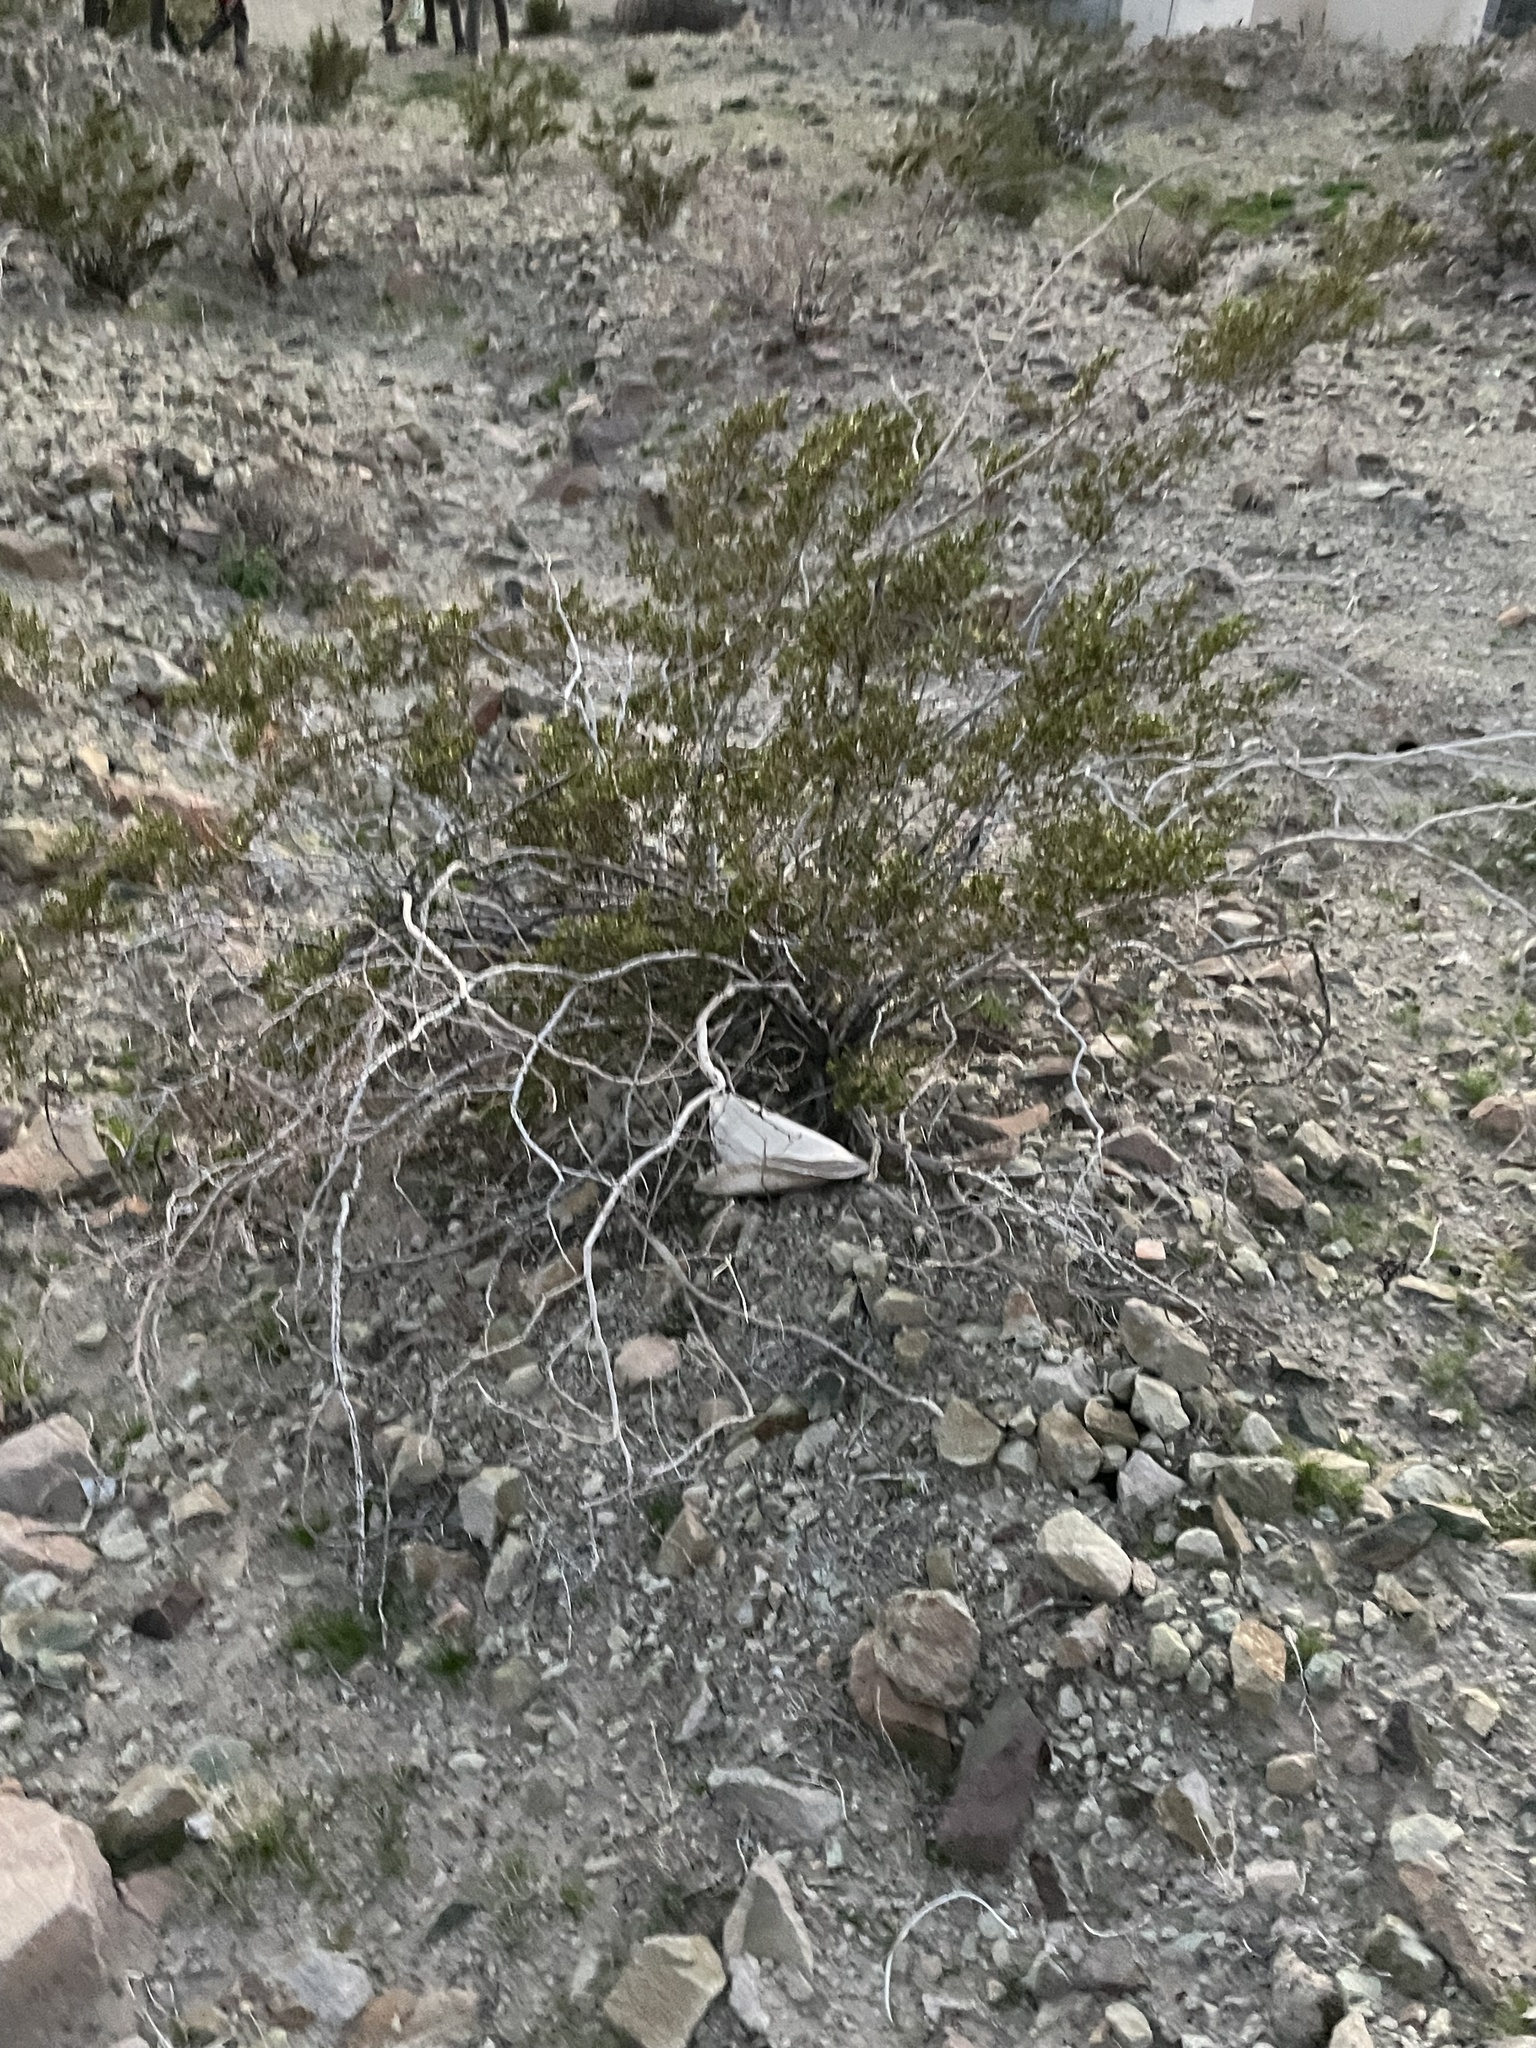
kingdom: Plantae
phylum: Tracheophyta
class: Magnoliopsida
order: Zygophyllales
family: Zygophyllaceae
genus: Larrea
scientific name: Larrea tridentata
